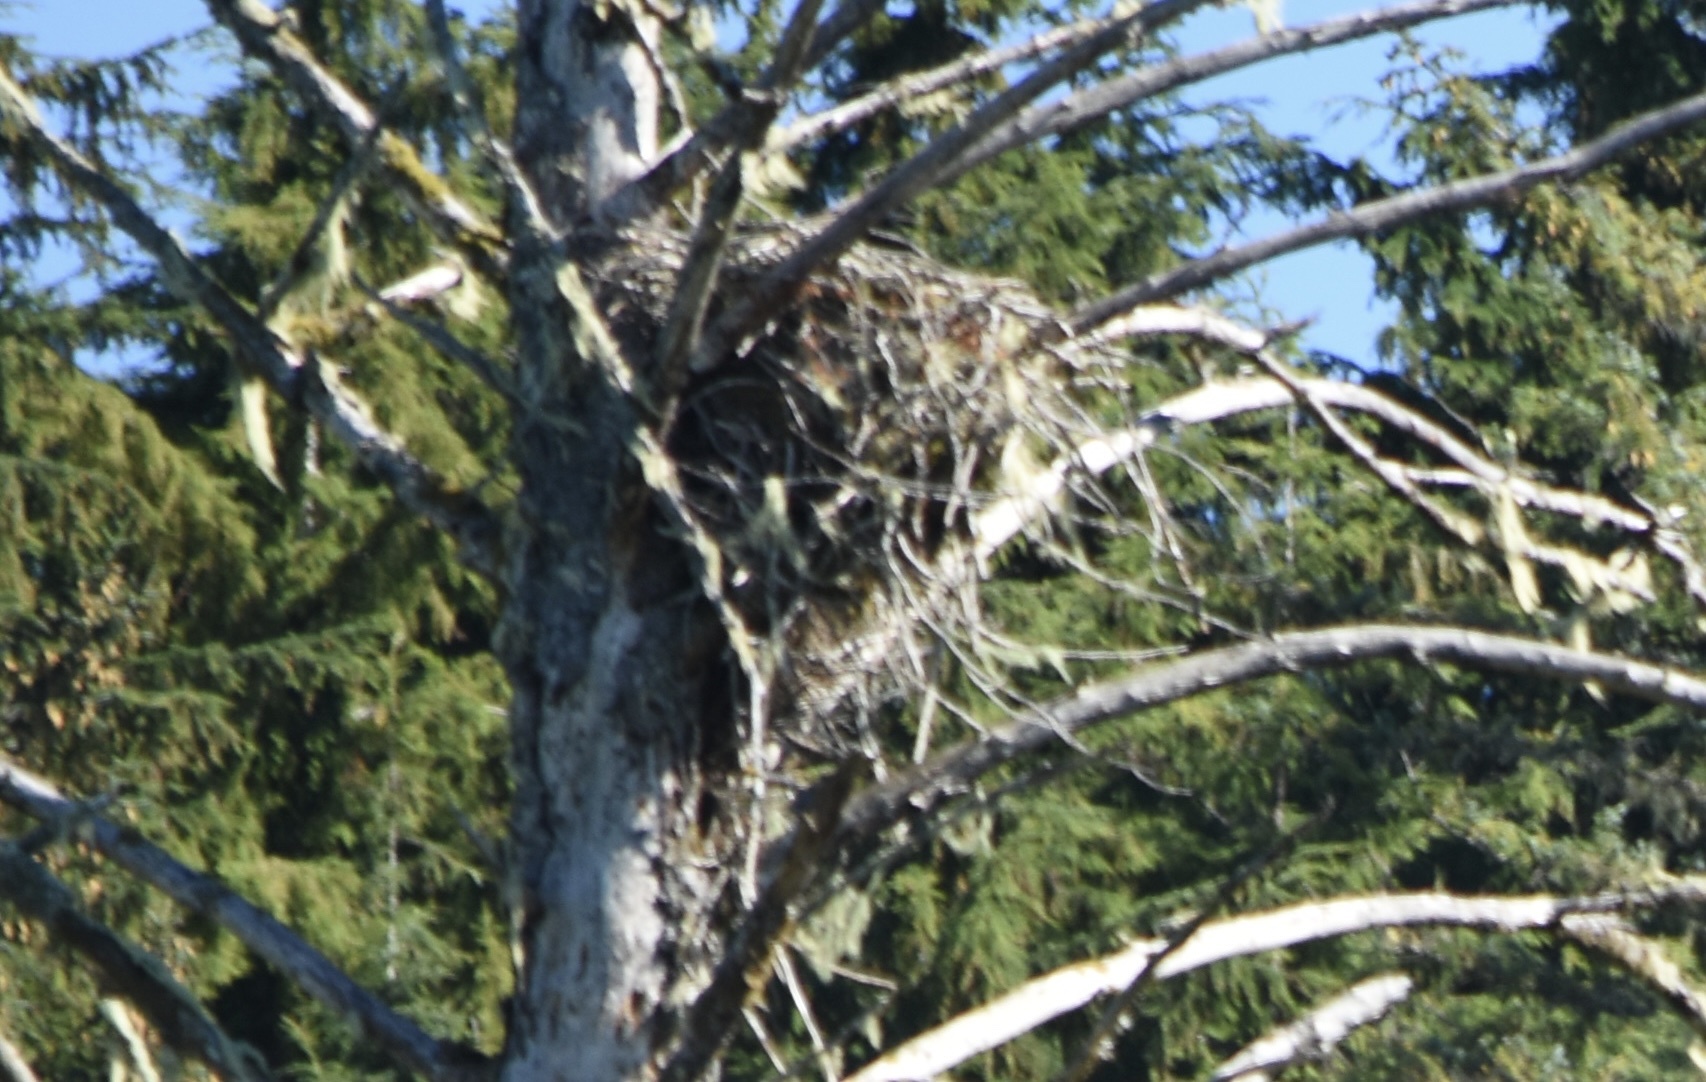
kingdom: Animalia
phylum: Chordata
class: Aves
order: Accipitriformes
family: Accipitridae
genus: Haliaeetus
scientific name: Haliaeetus leucocephalus
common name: Bald eagle
